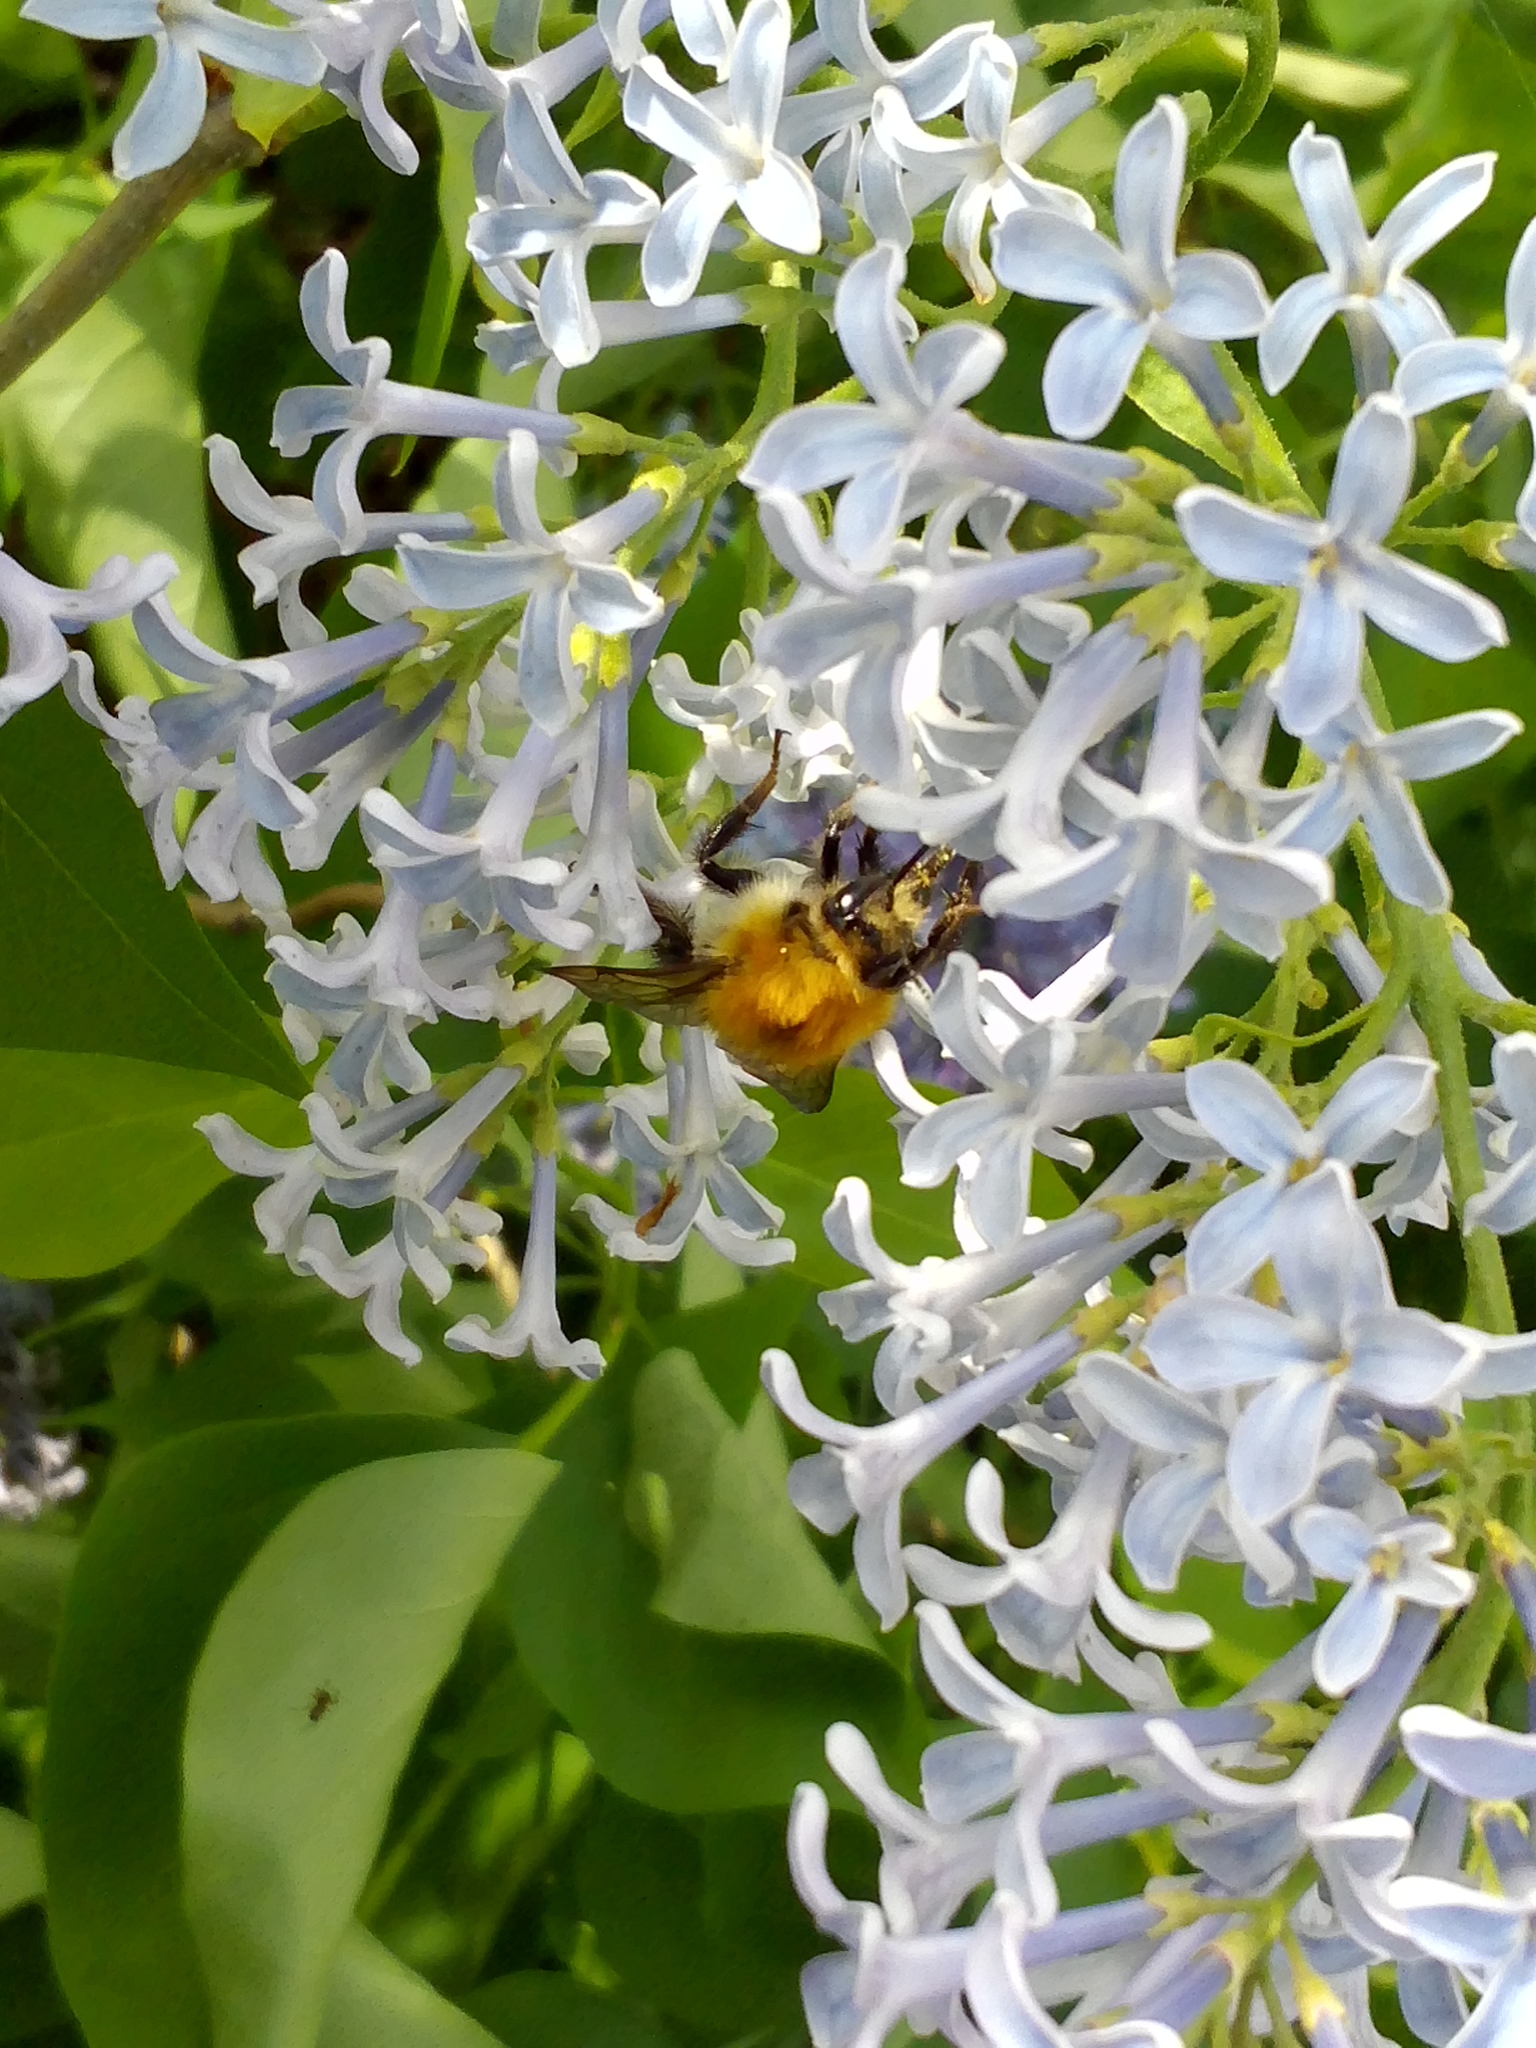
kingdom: Animalia
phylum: Arthropoda
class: Insecta
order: Hymenoptera
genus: Thoracobombus
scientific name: Thoracobombus
